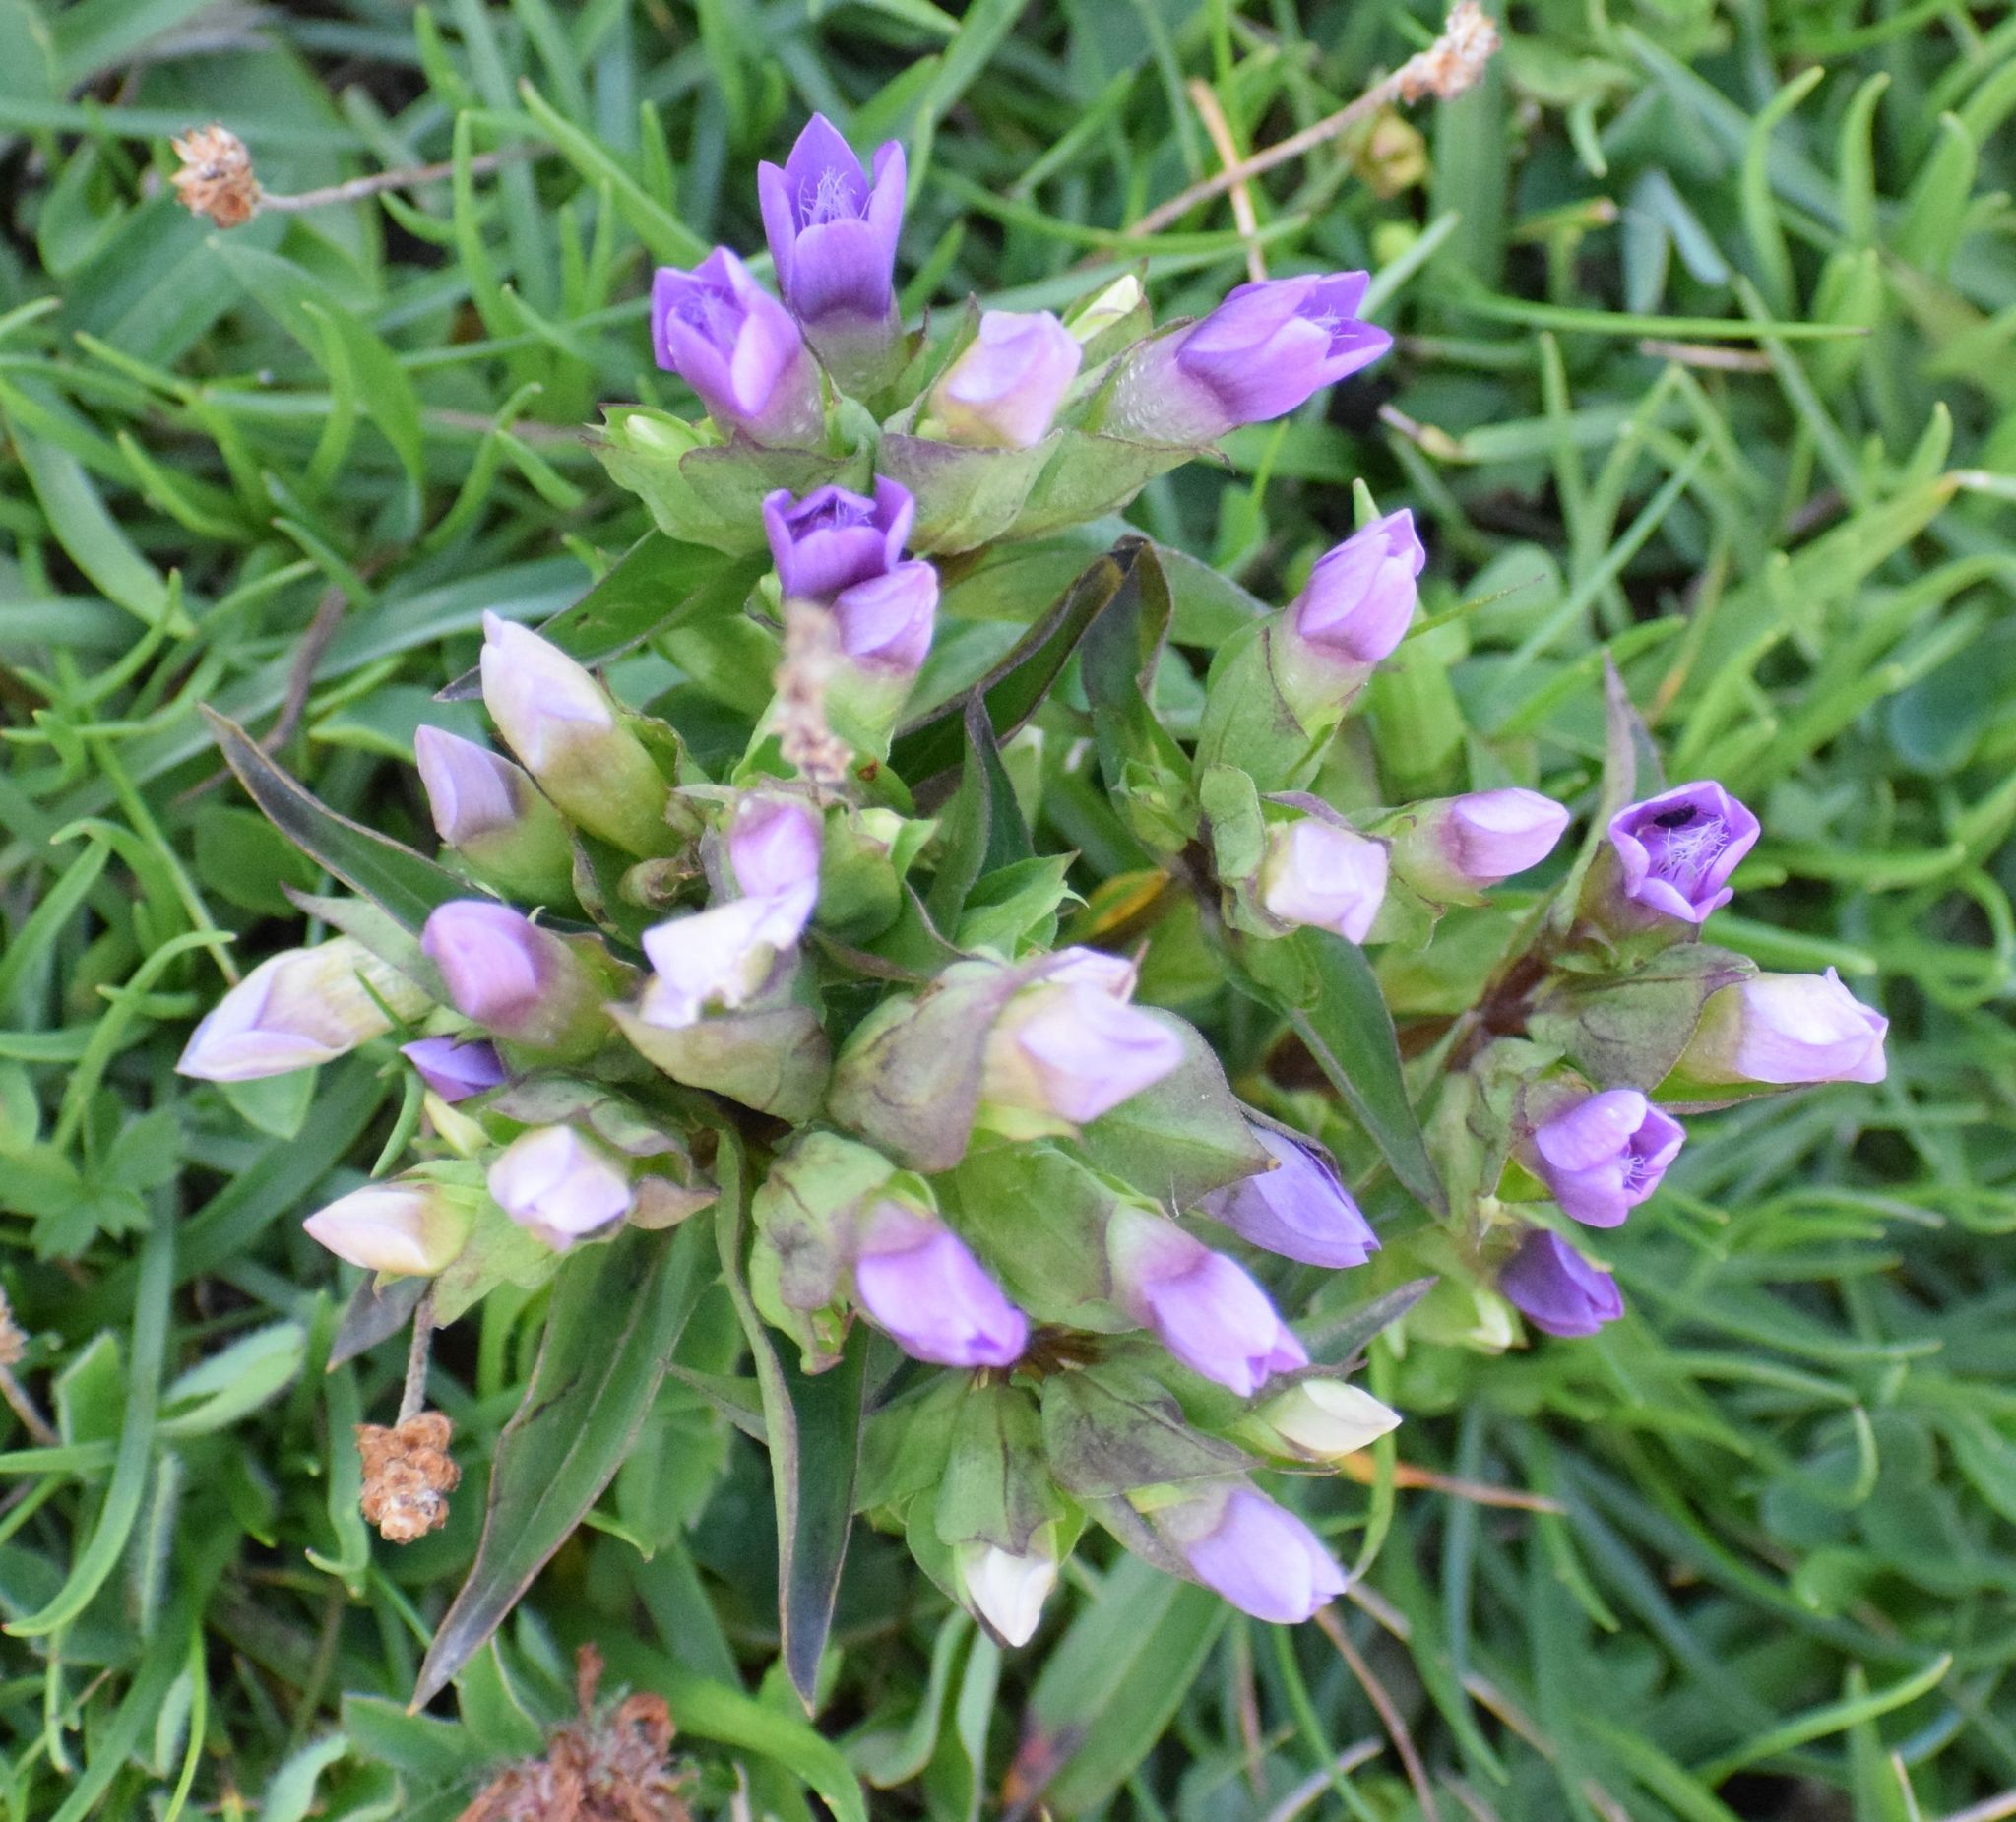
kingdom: Plantae
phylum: Tracheophyta
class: Magnoliopsida
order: Gentianales
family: Gentianaceae
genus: Gentianella
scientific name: Gentianella campestris
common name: Field gentian
